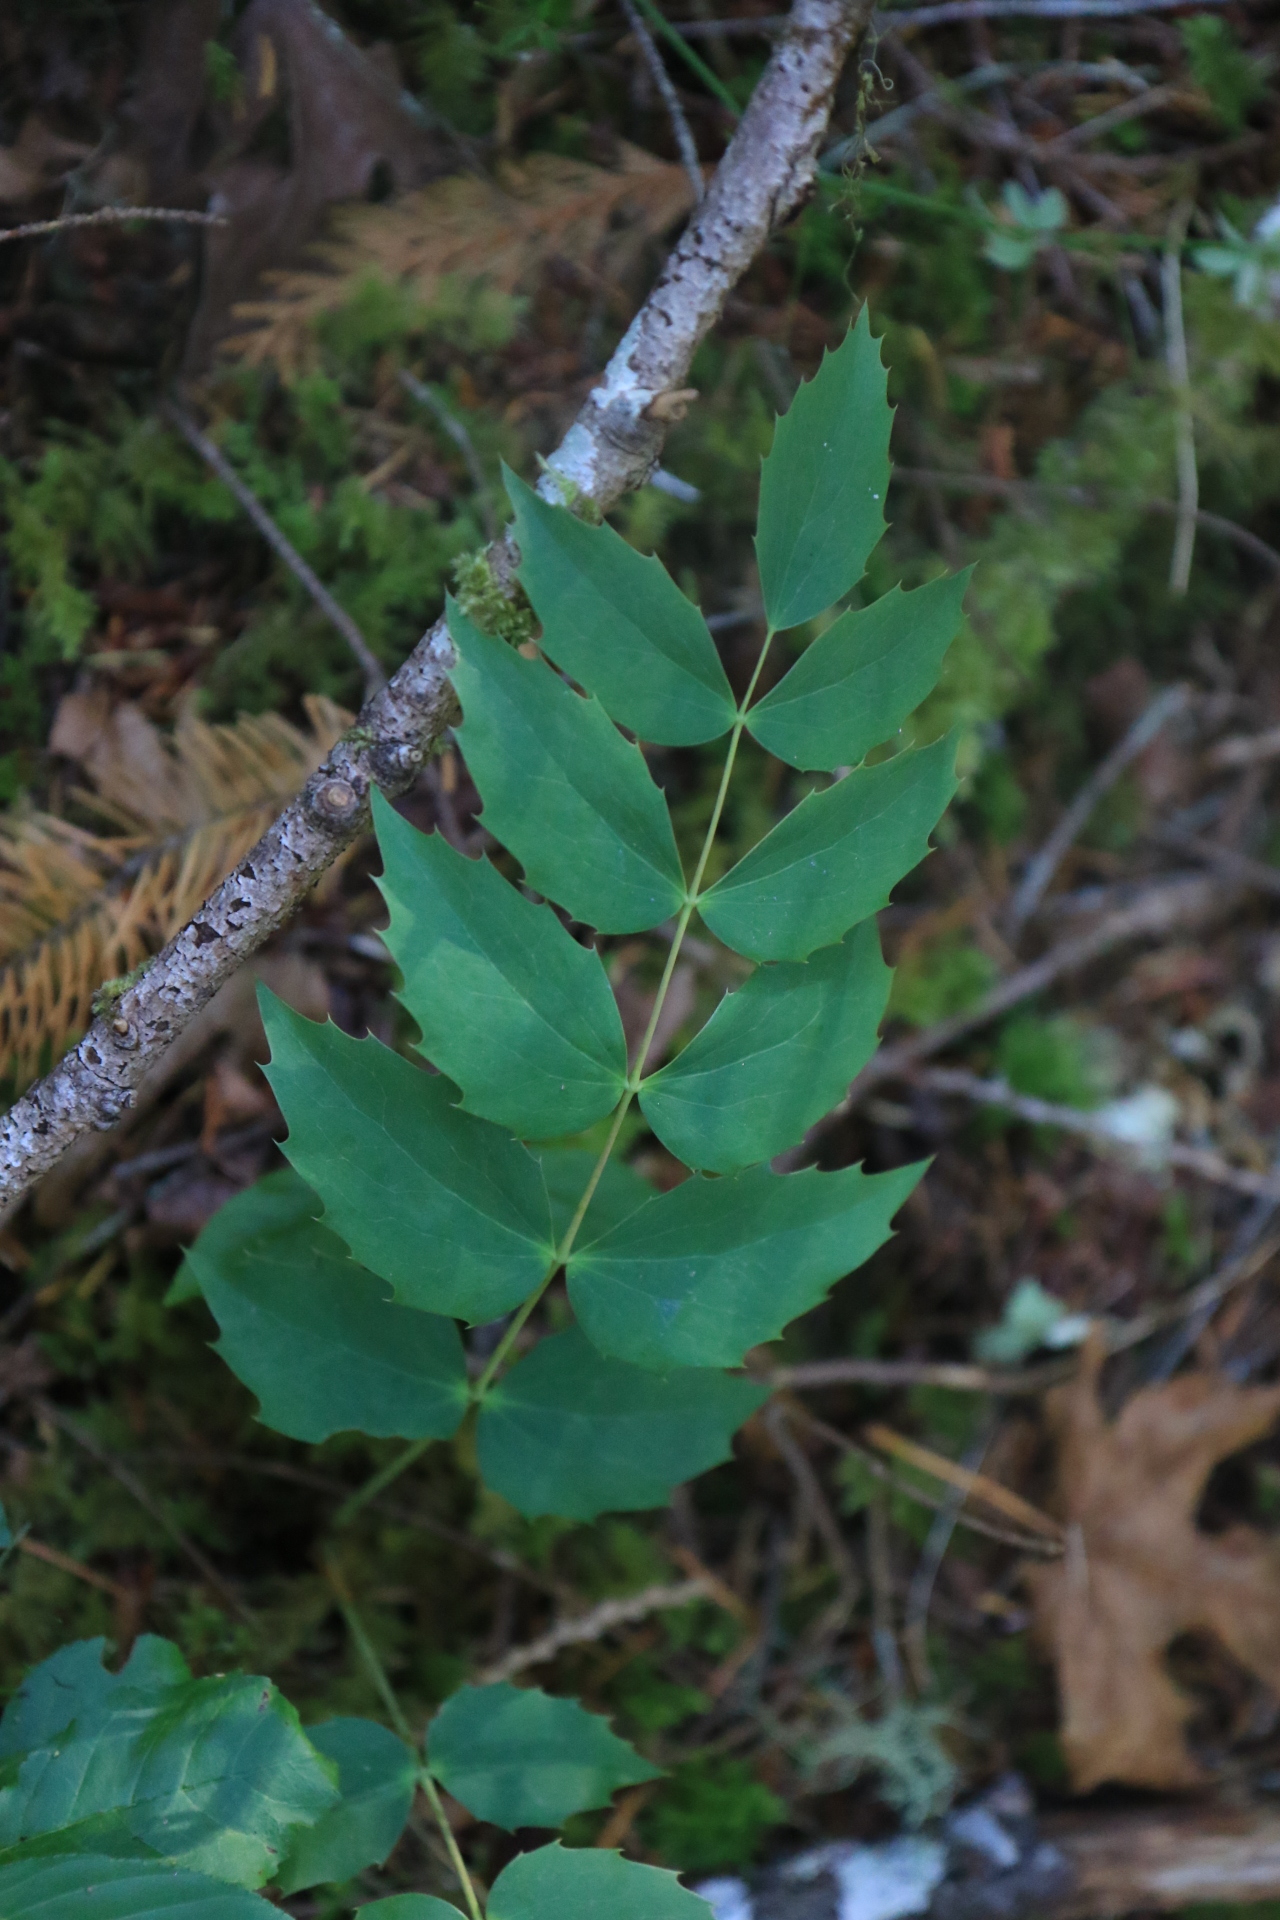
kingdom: Plantae
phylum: Tracheophyta
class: Magnoliopsida
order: Ranunculales
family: Berberidaceae
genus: Mahonia
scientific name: Mahonia nervosa
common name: Cascade oregon-grape
